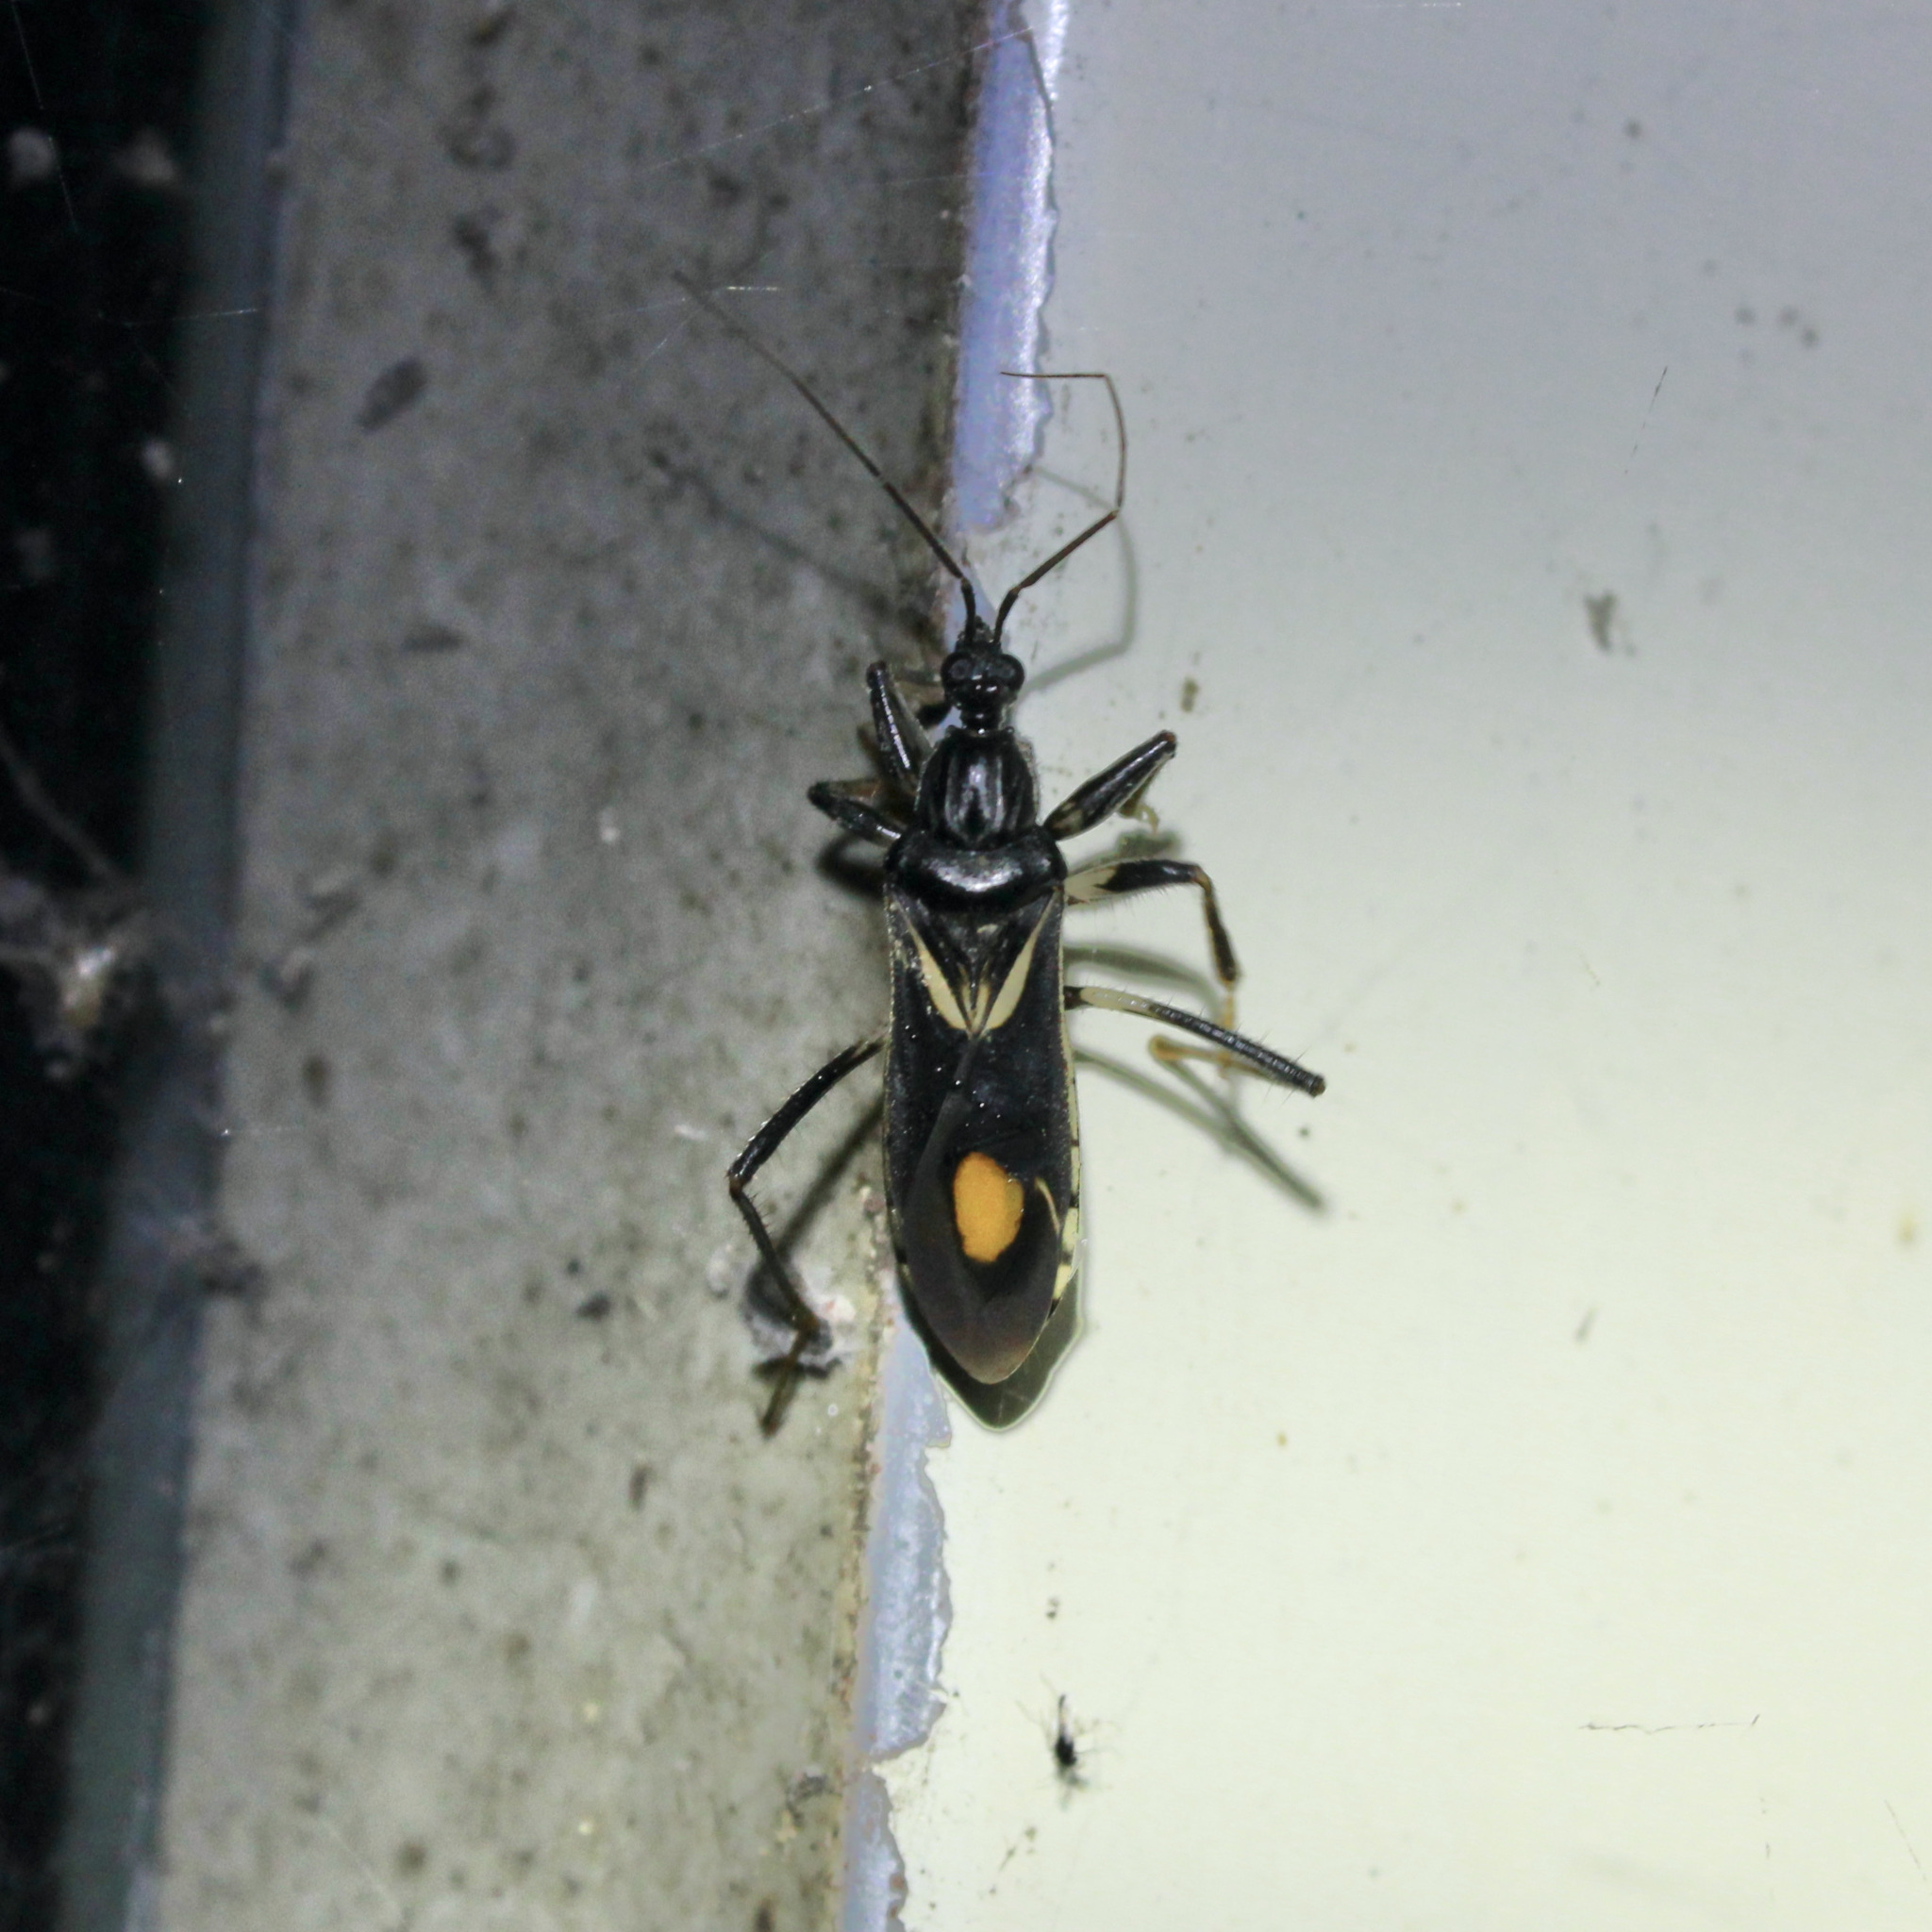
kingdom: Animalia
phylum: Arthropoda
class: Insecta
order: Hemiptera
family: Reduviidae
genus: Rasahus
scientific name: Rasahus hamatus
